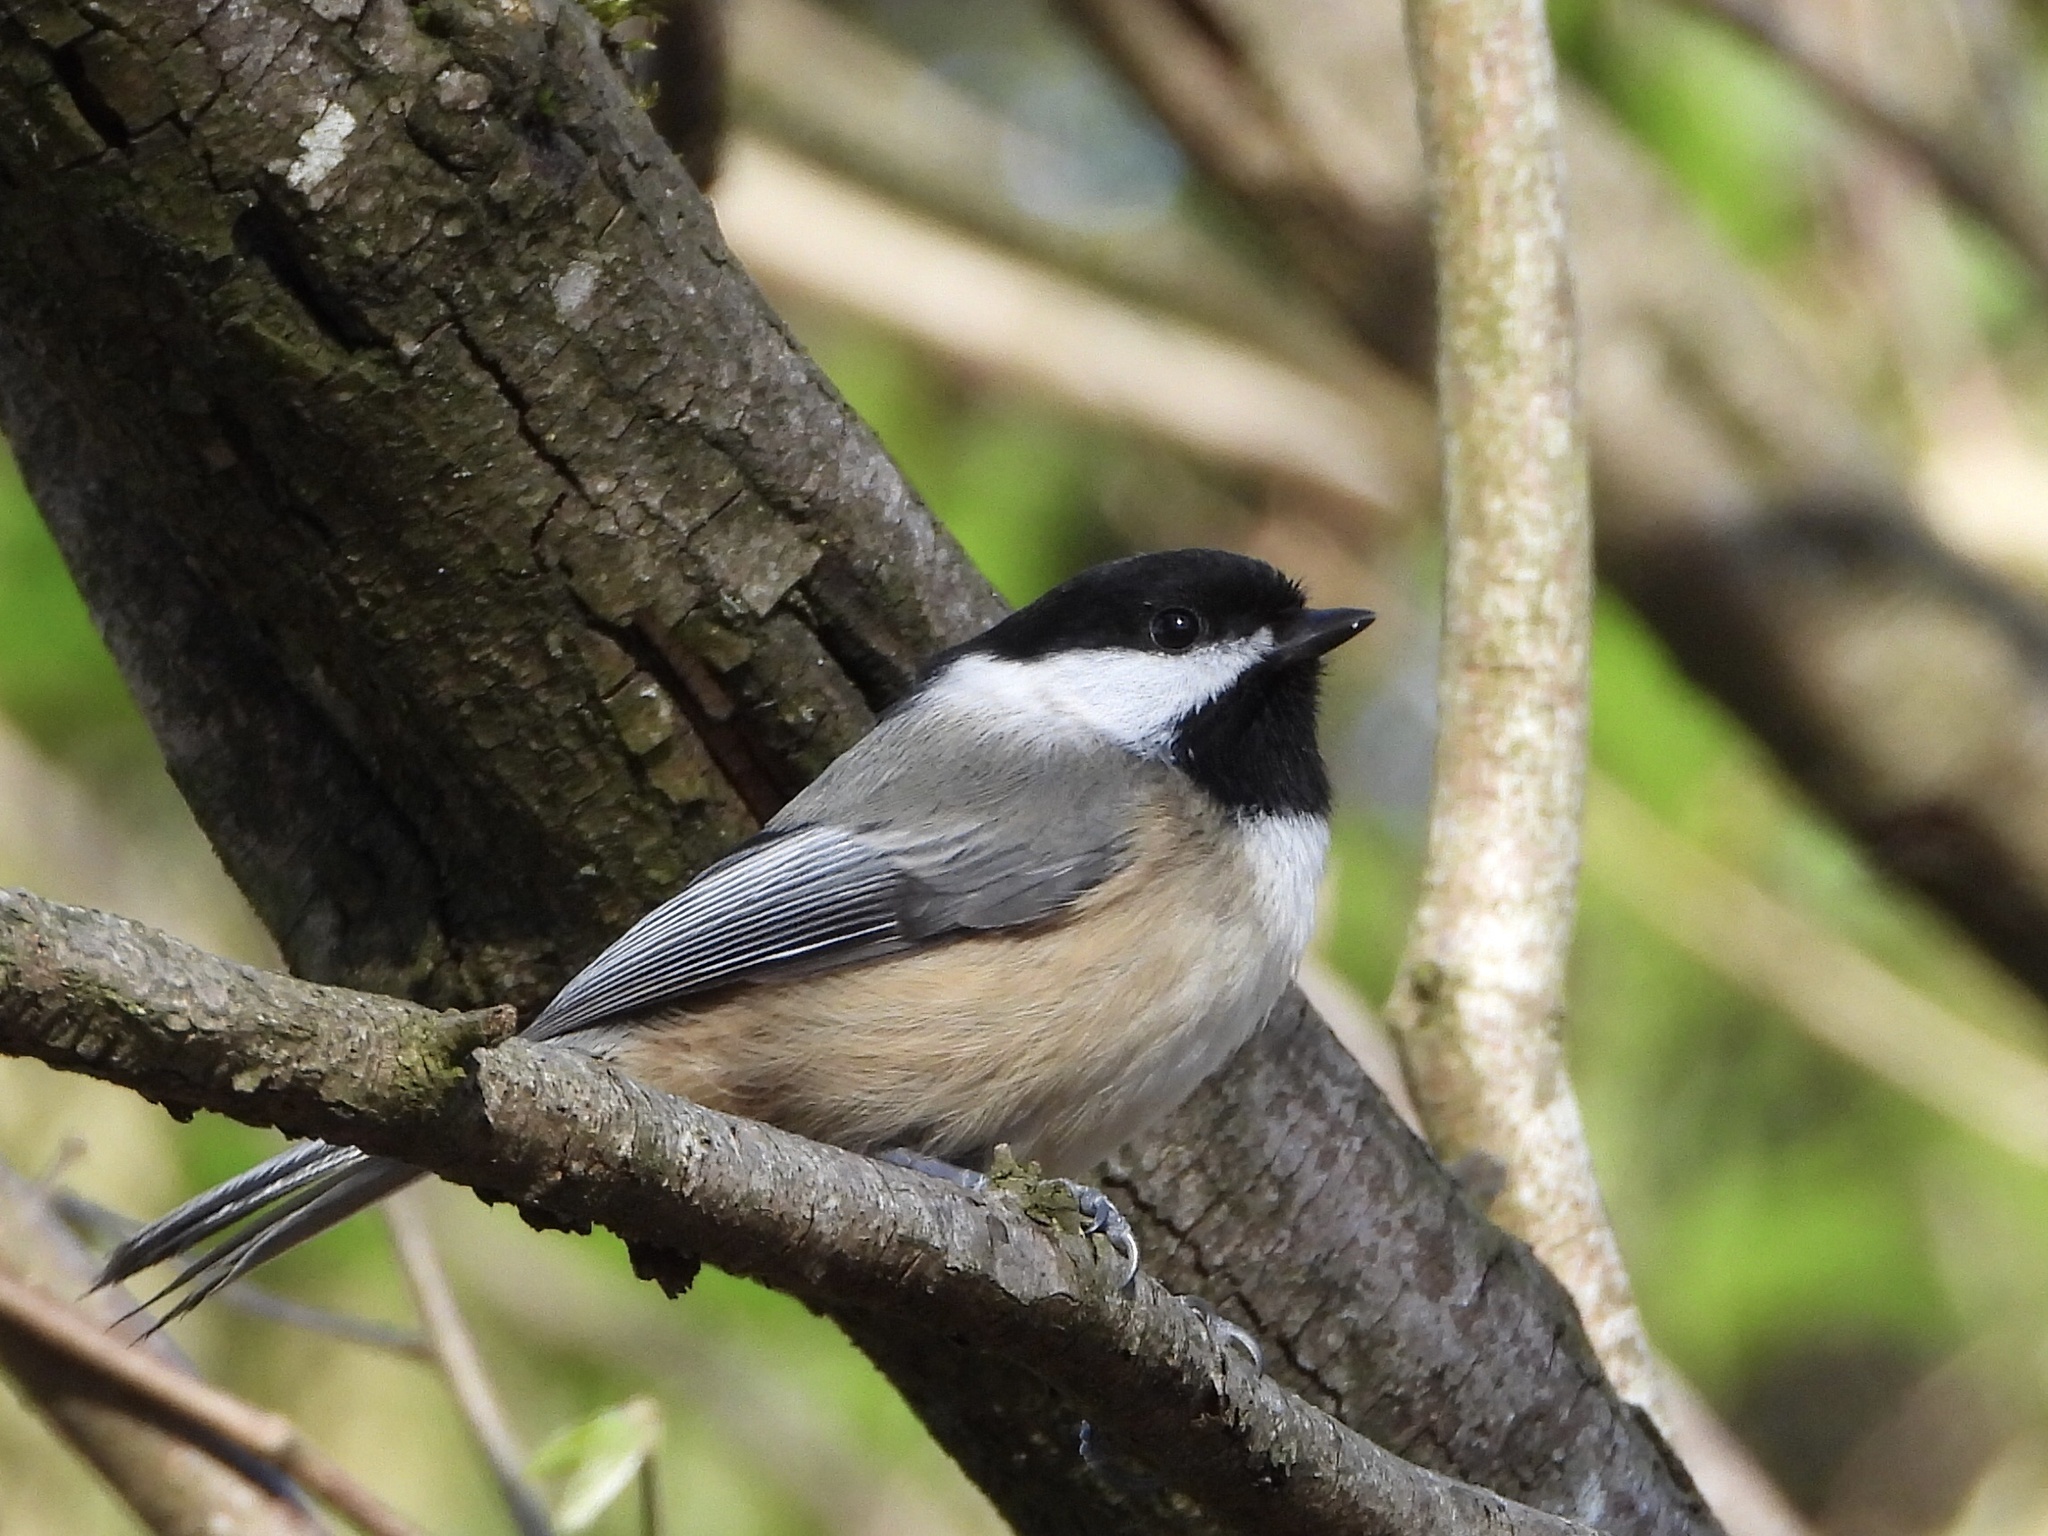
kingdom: Animalia
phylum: Chordata
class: Aves
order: Passeriformes
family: Paridae
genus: Poecile
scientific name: Poecile atricapillus
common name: Black-capped chickadee
